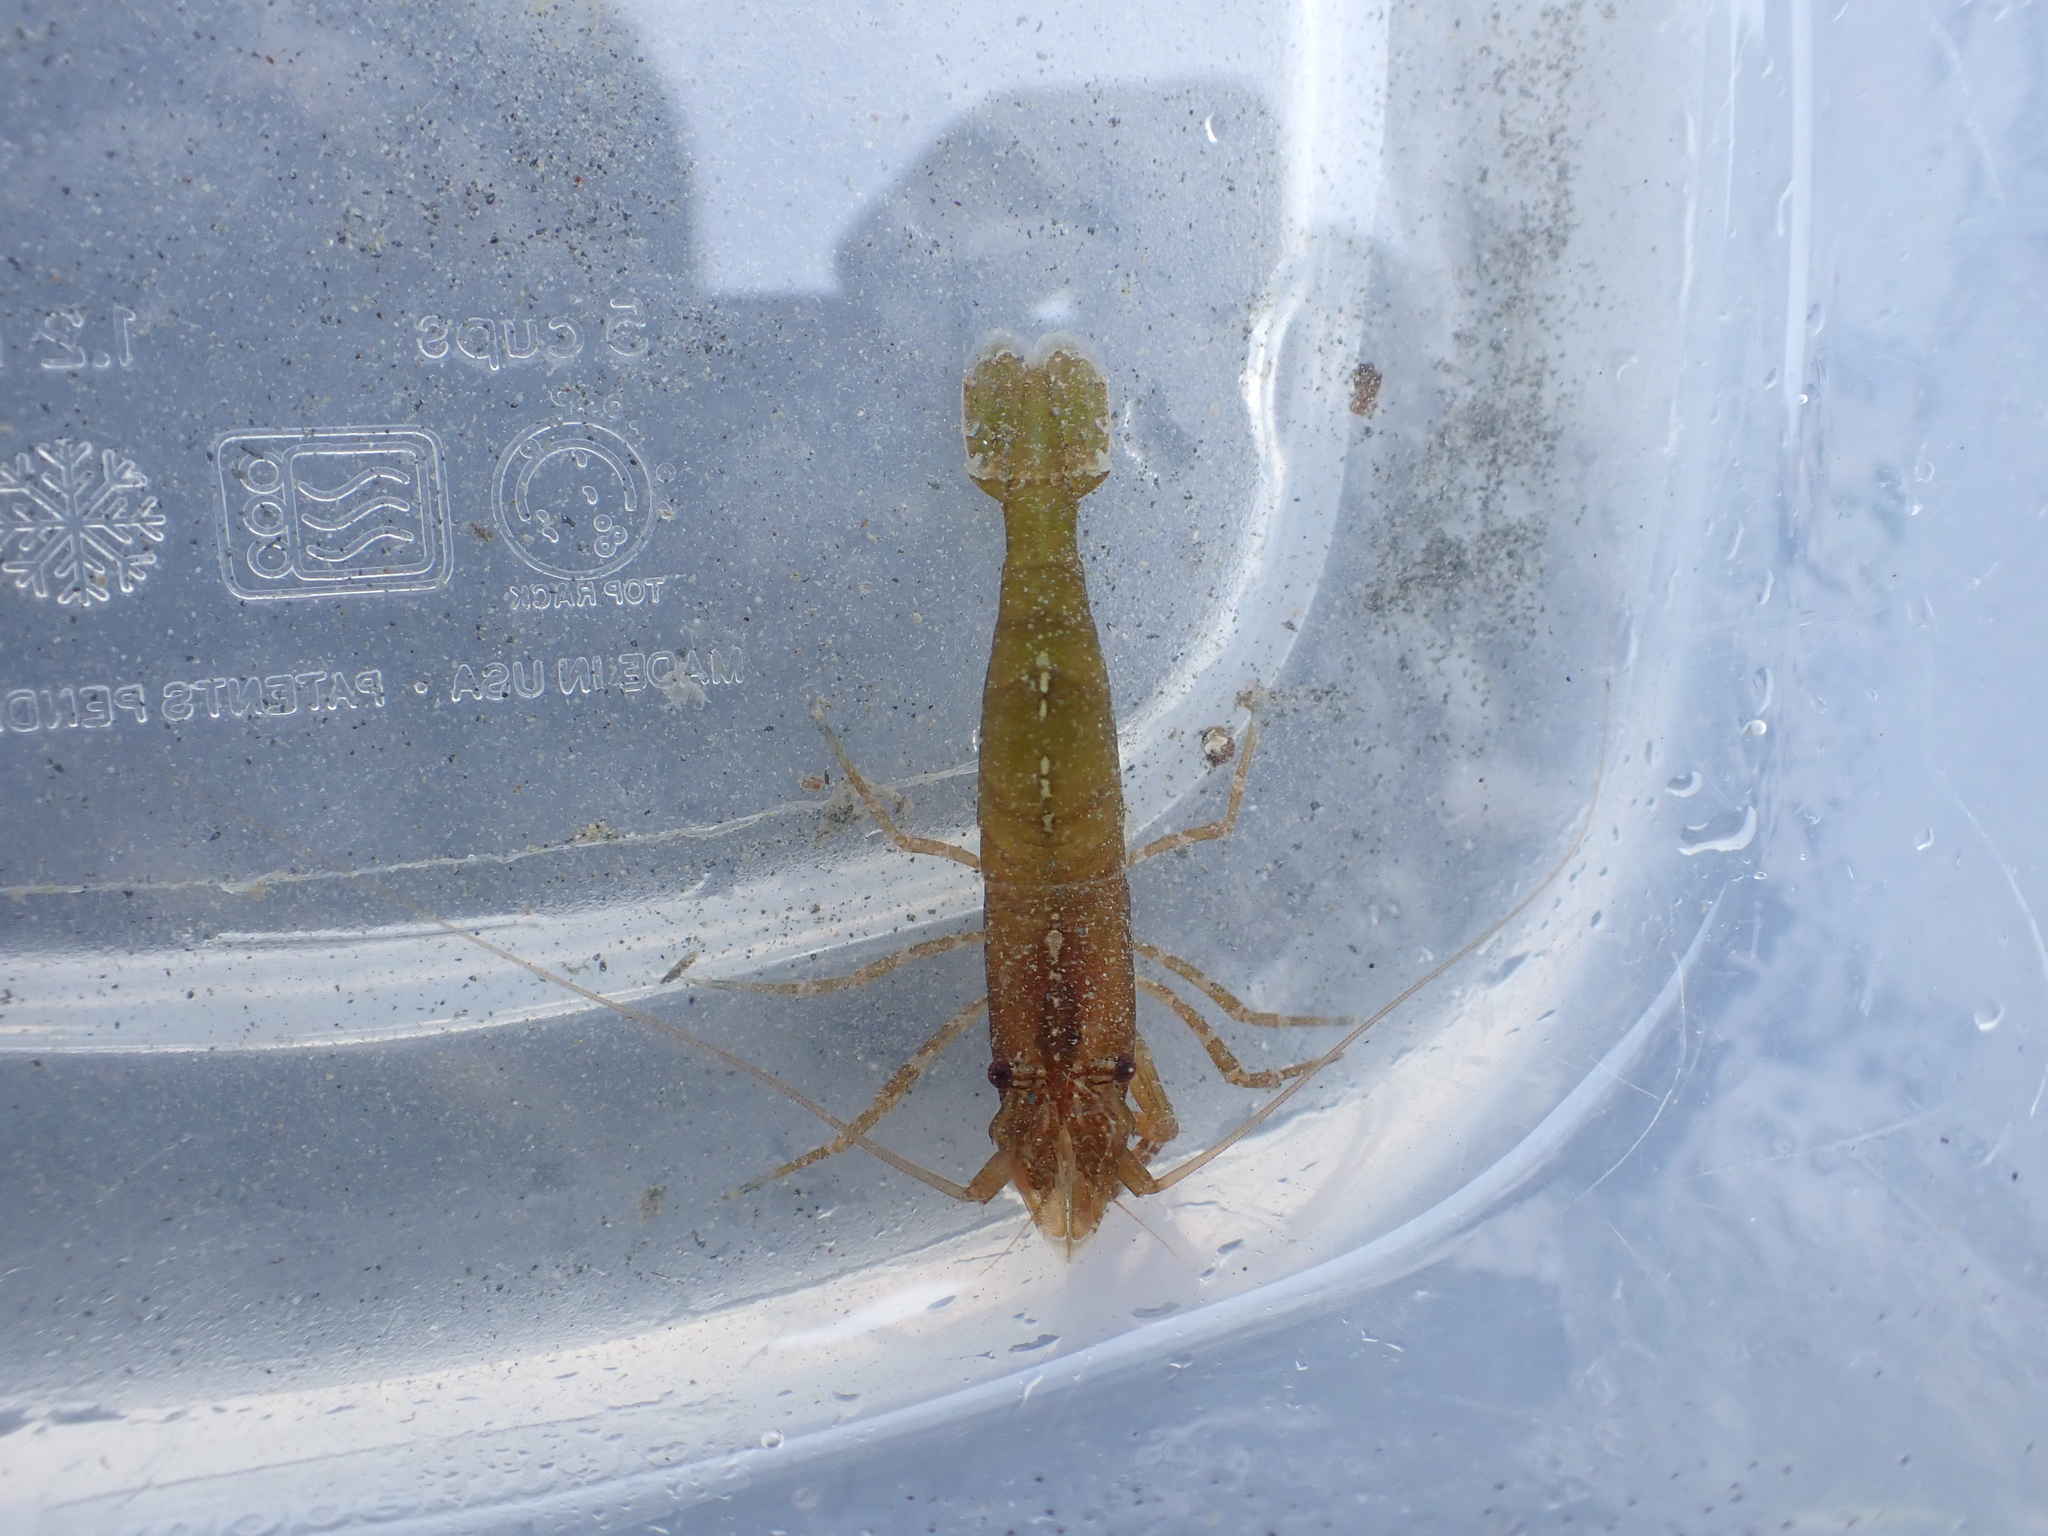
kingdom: Animalia
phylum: Arthropoda
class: Malacostraca
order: Decapoda
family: Thoridae
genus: Heptacarpus
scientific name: Heptacarpus brevirostris
